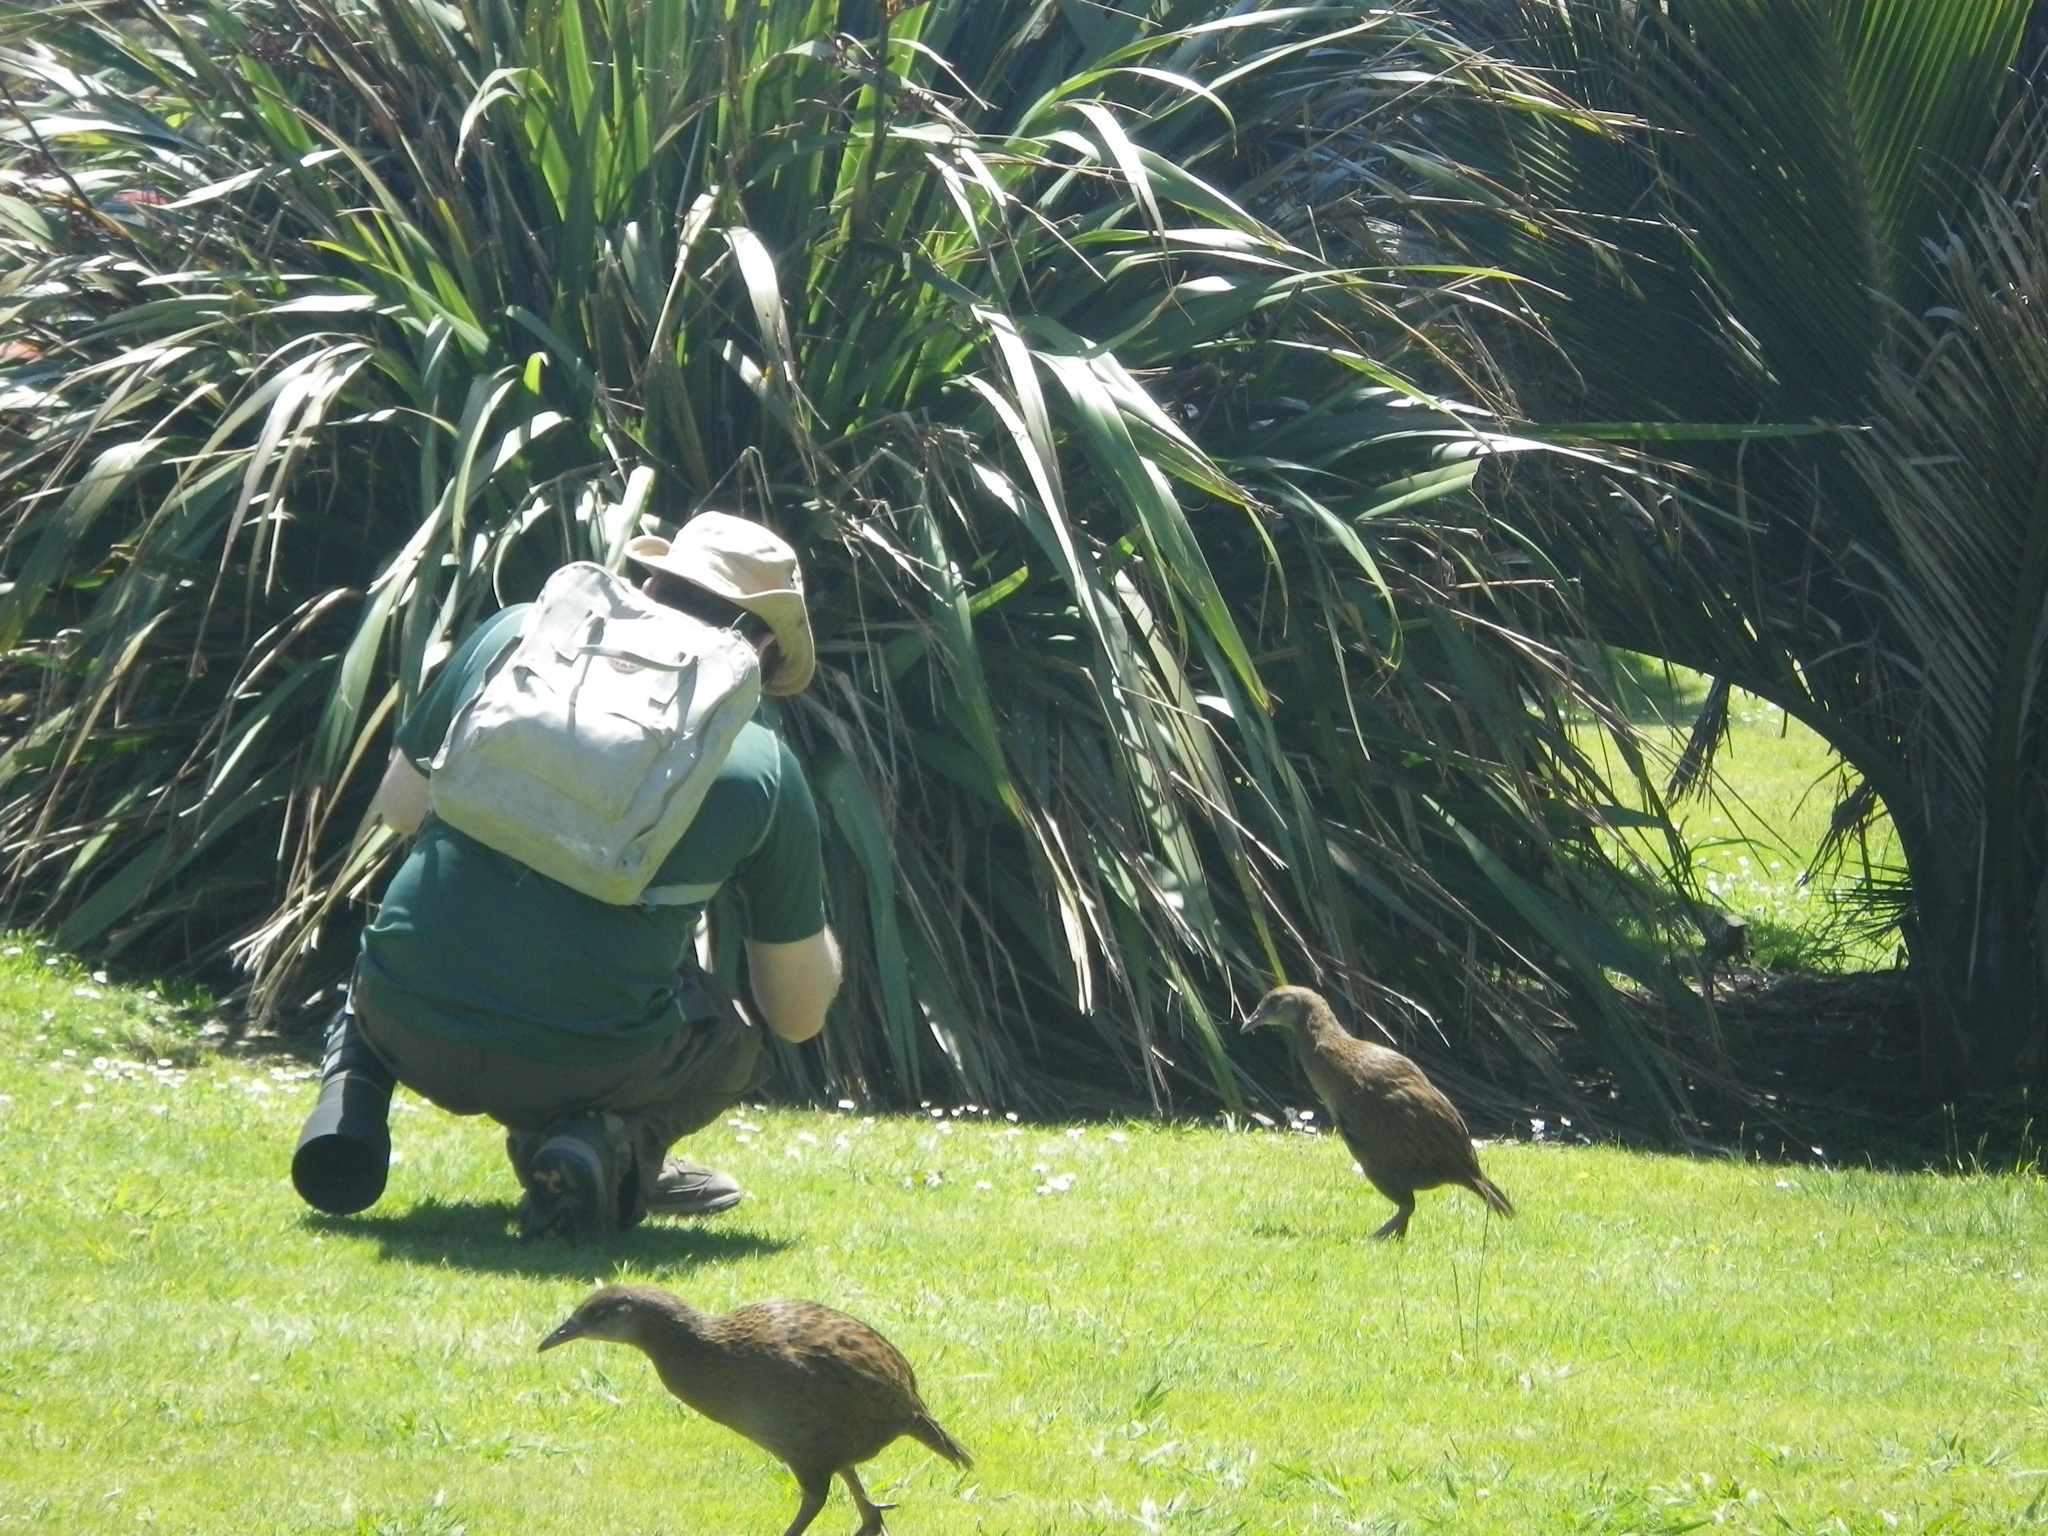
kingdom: Animalia
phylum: Chordata
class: Aves
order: Gruiformes
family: Rallidae
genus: Gallirallus
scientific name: Gallirallus australis
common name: Weka
